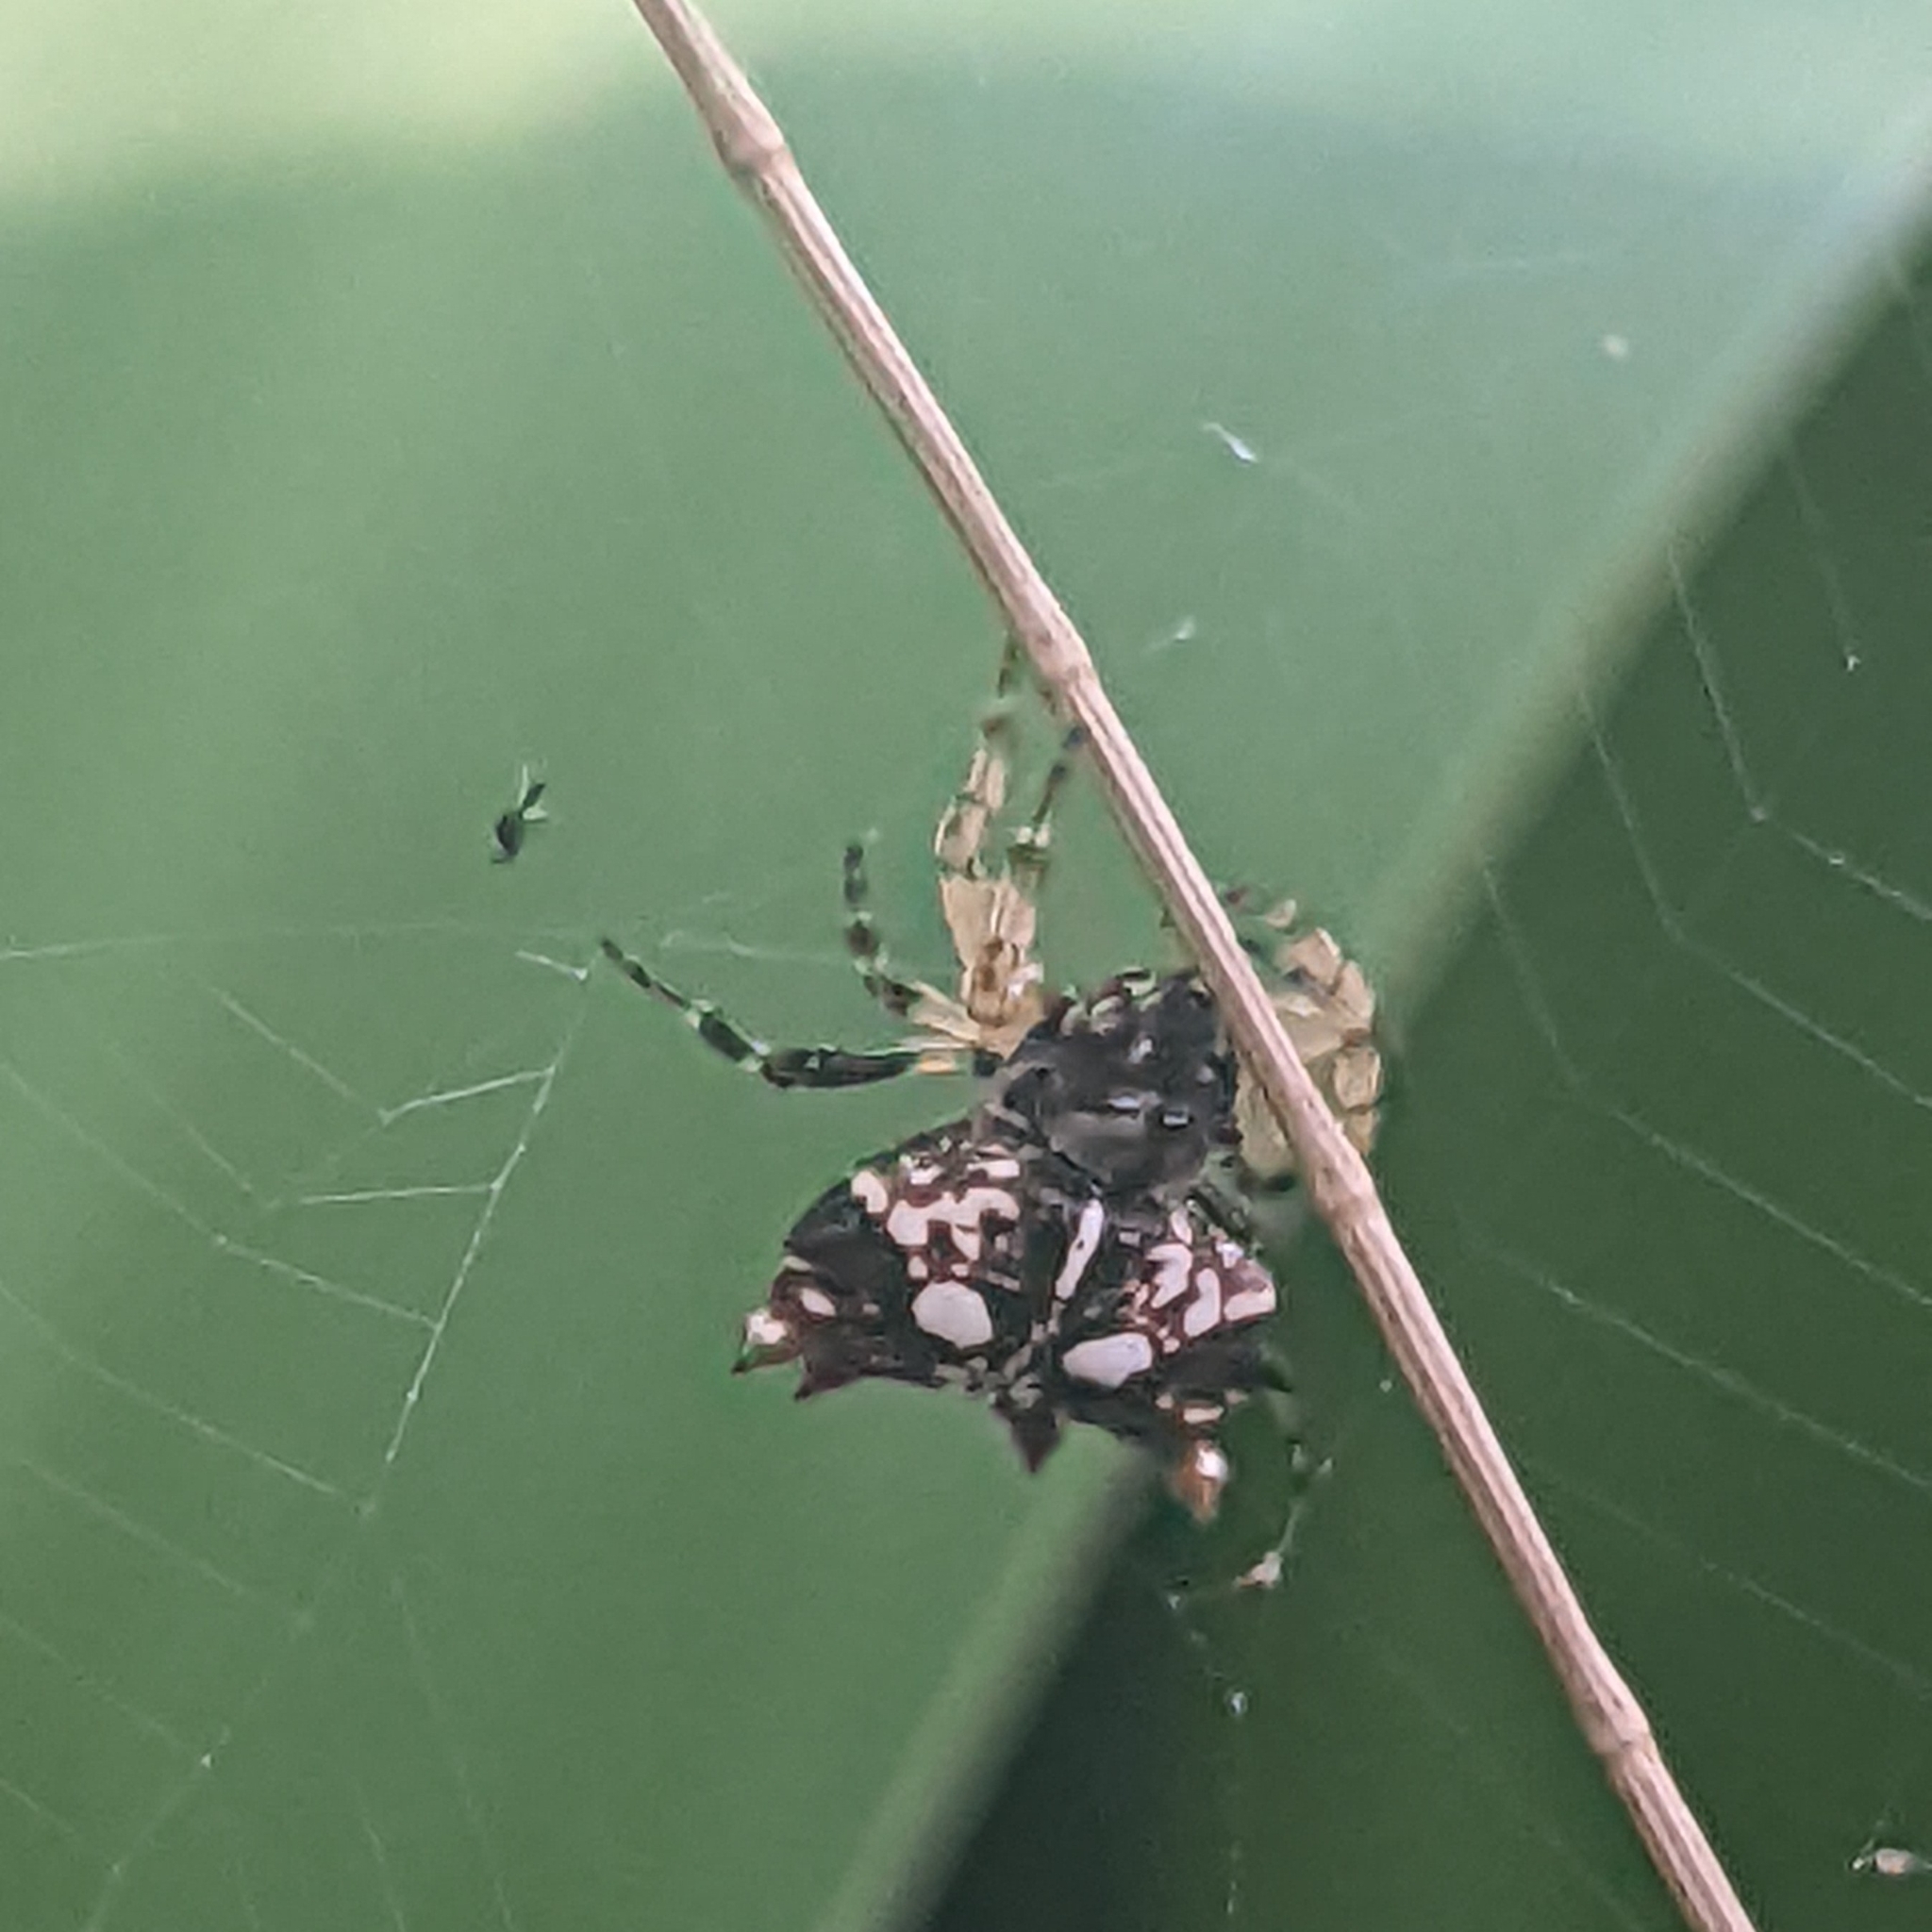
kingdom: Animalia
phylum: Arthropoda
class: Arachnida
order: Araneae
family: Araneidae
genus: Thelacantha
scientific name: Thelacantha brevispina
